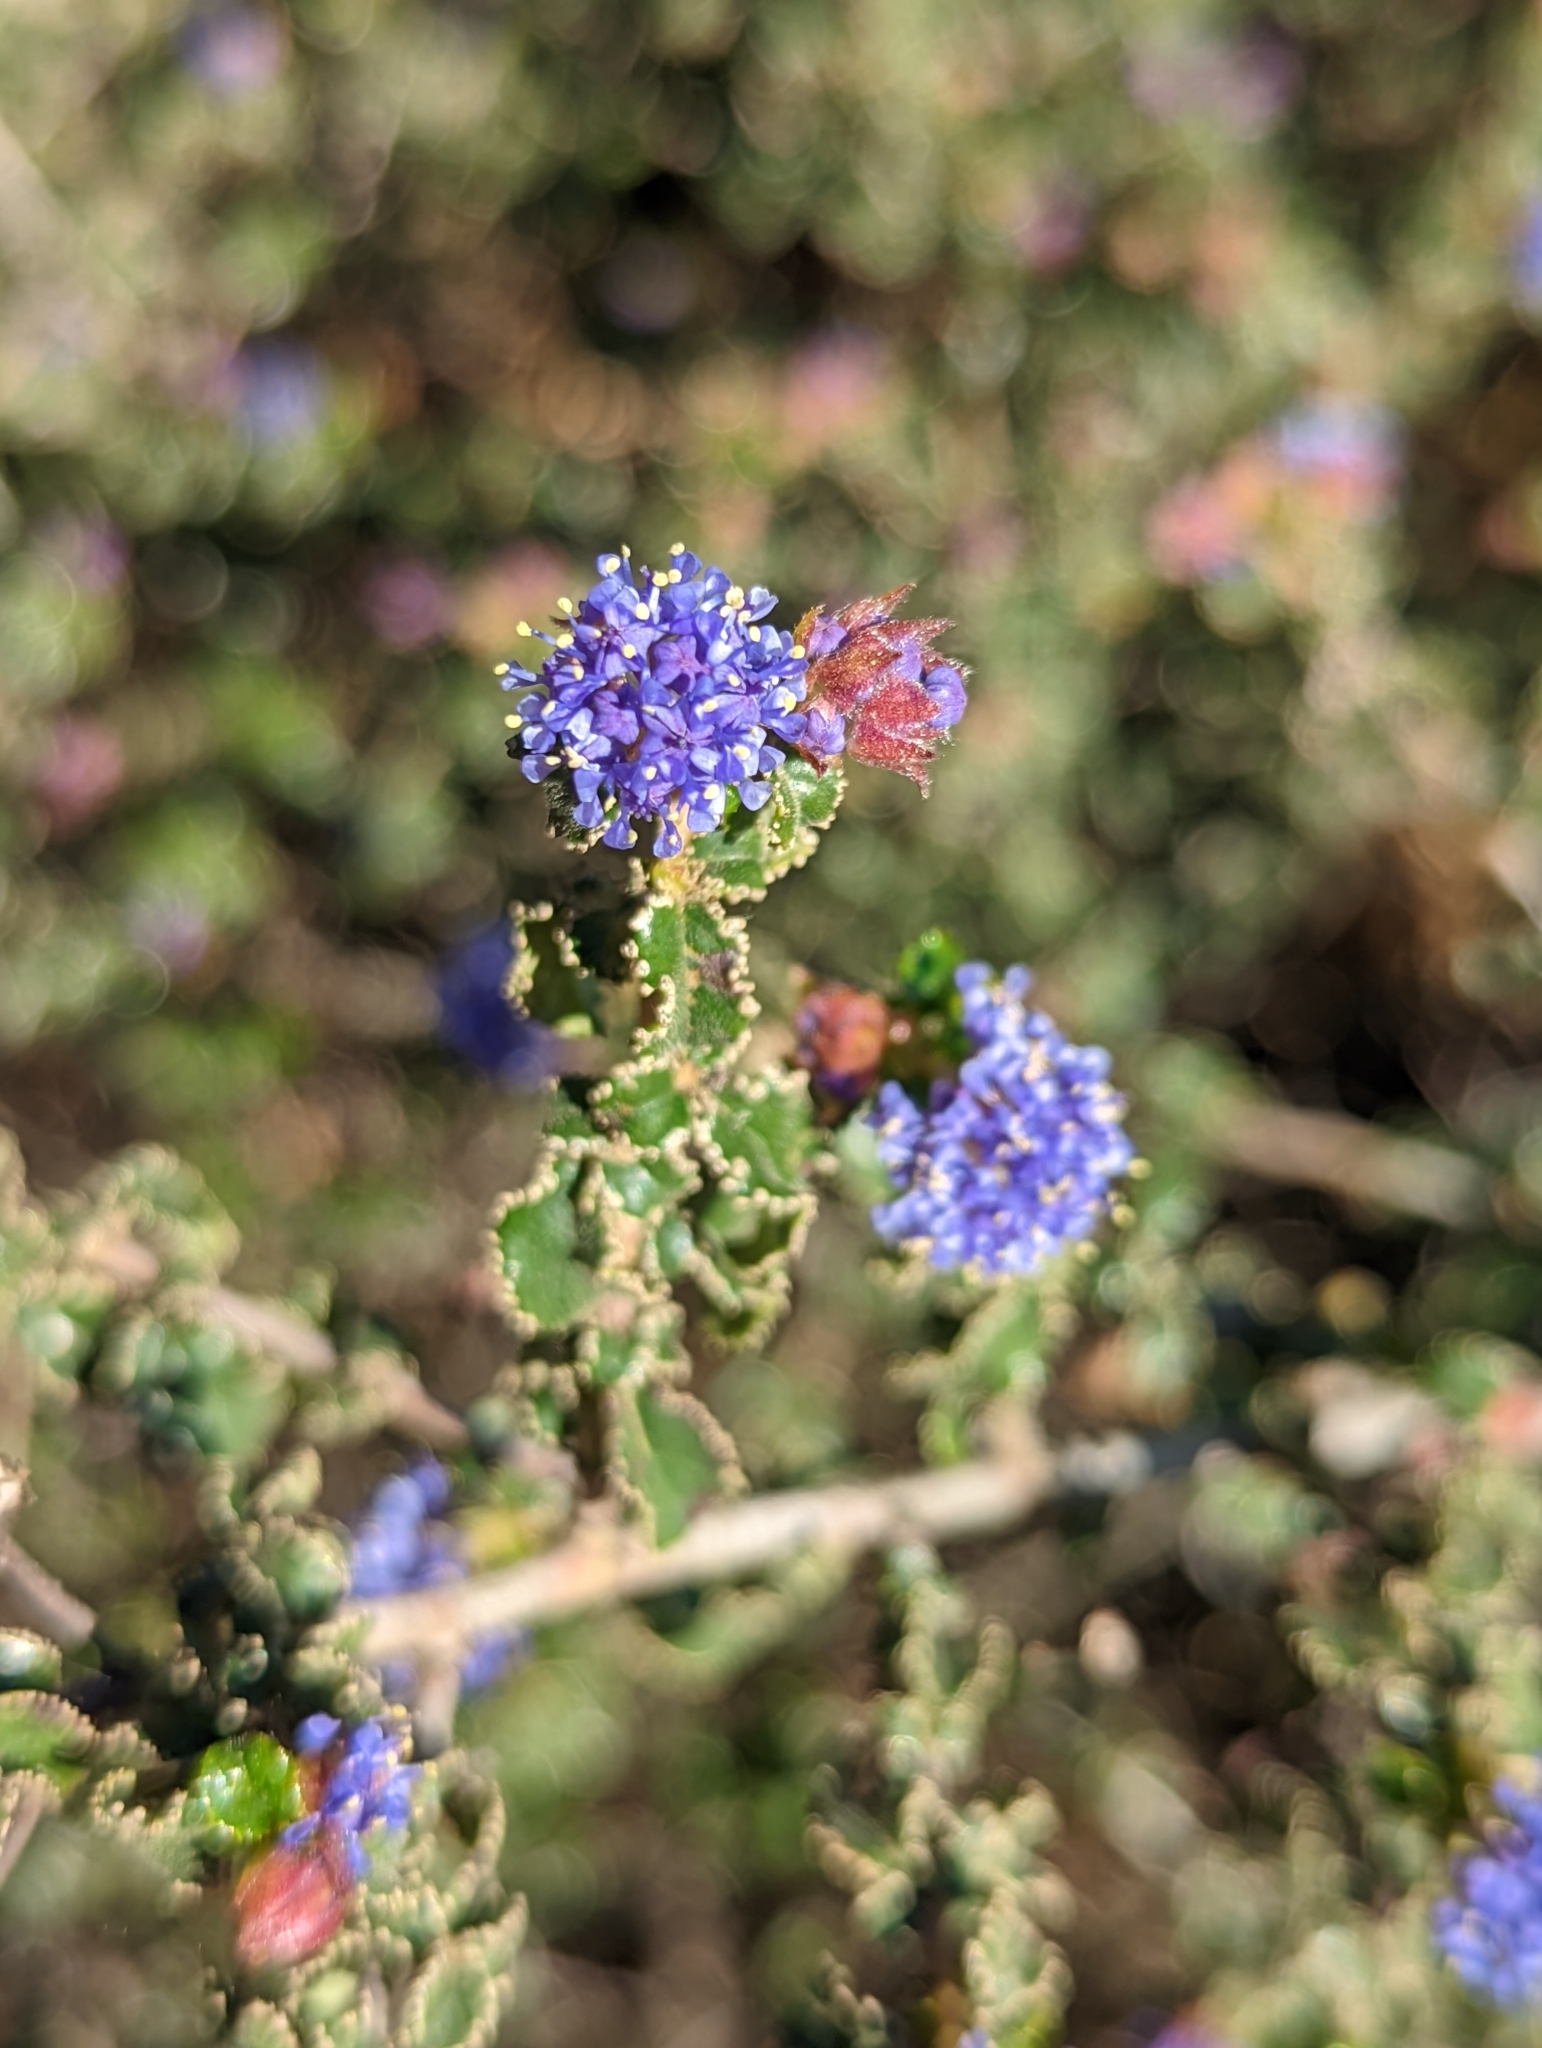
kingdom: Plantae
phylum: Tracheophyta
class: Magnoliopsida
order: Rosales
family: Rhamnaceae
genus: Ceanothus
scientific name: Ceanothus foliosus
